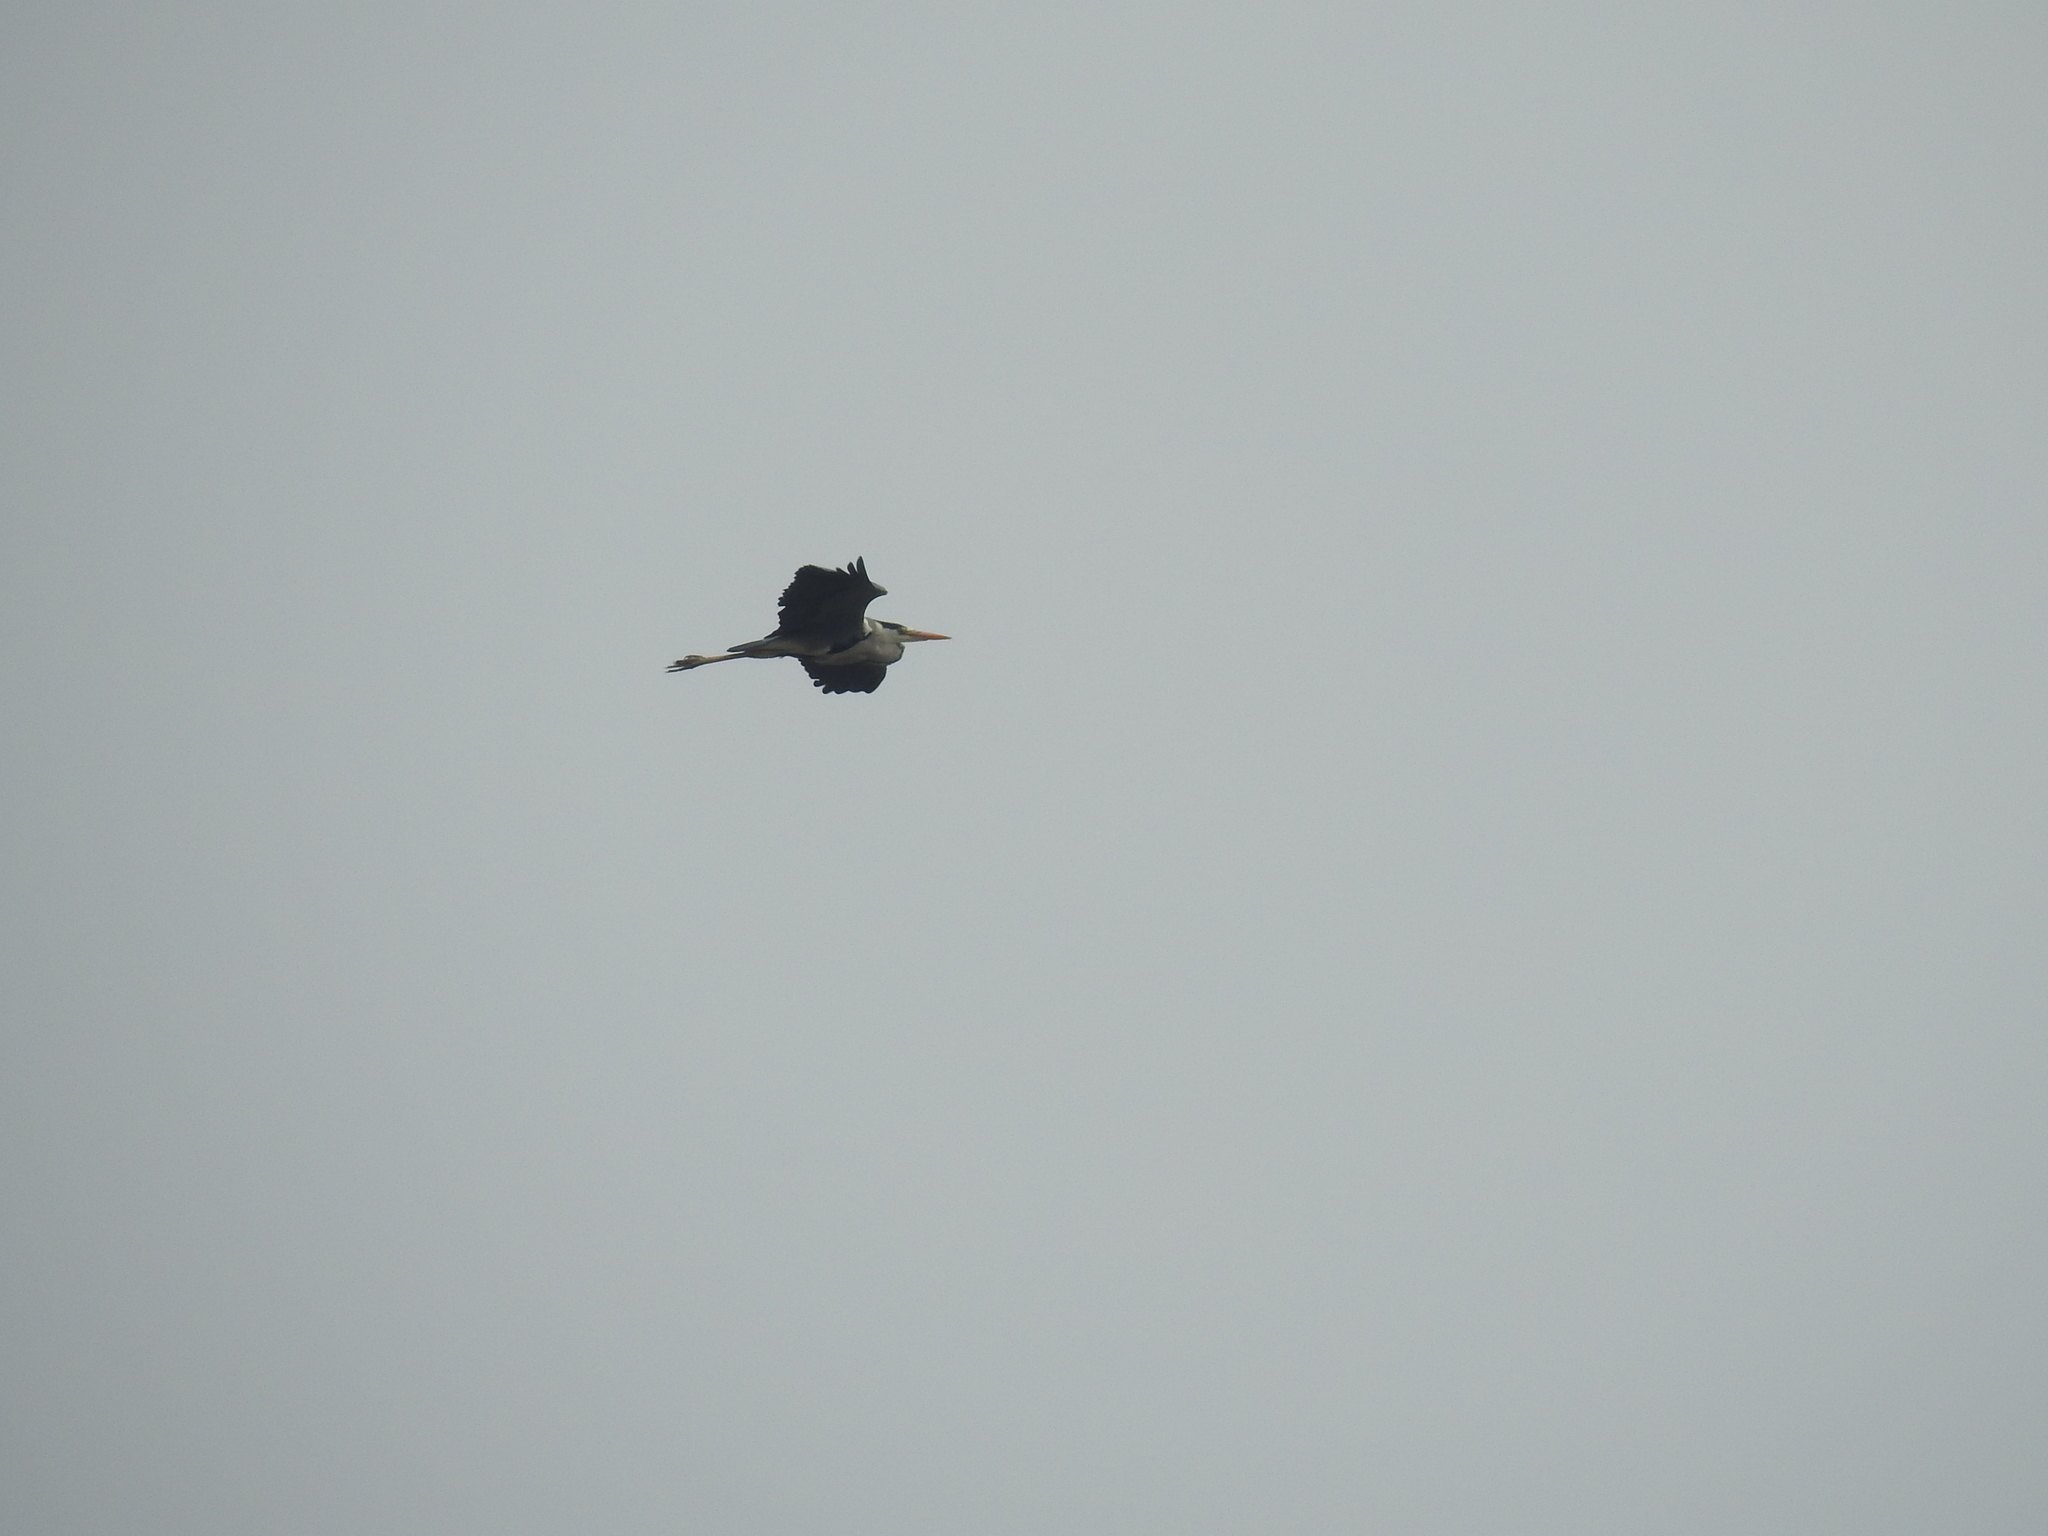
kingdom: Animalia
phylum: Chordata
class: Aves
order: Pelecaniformes
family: Ardeidae
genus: Ardea
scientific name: Ardea cinerea
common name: Grey heron
